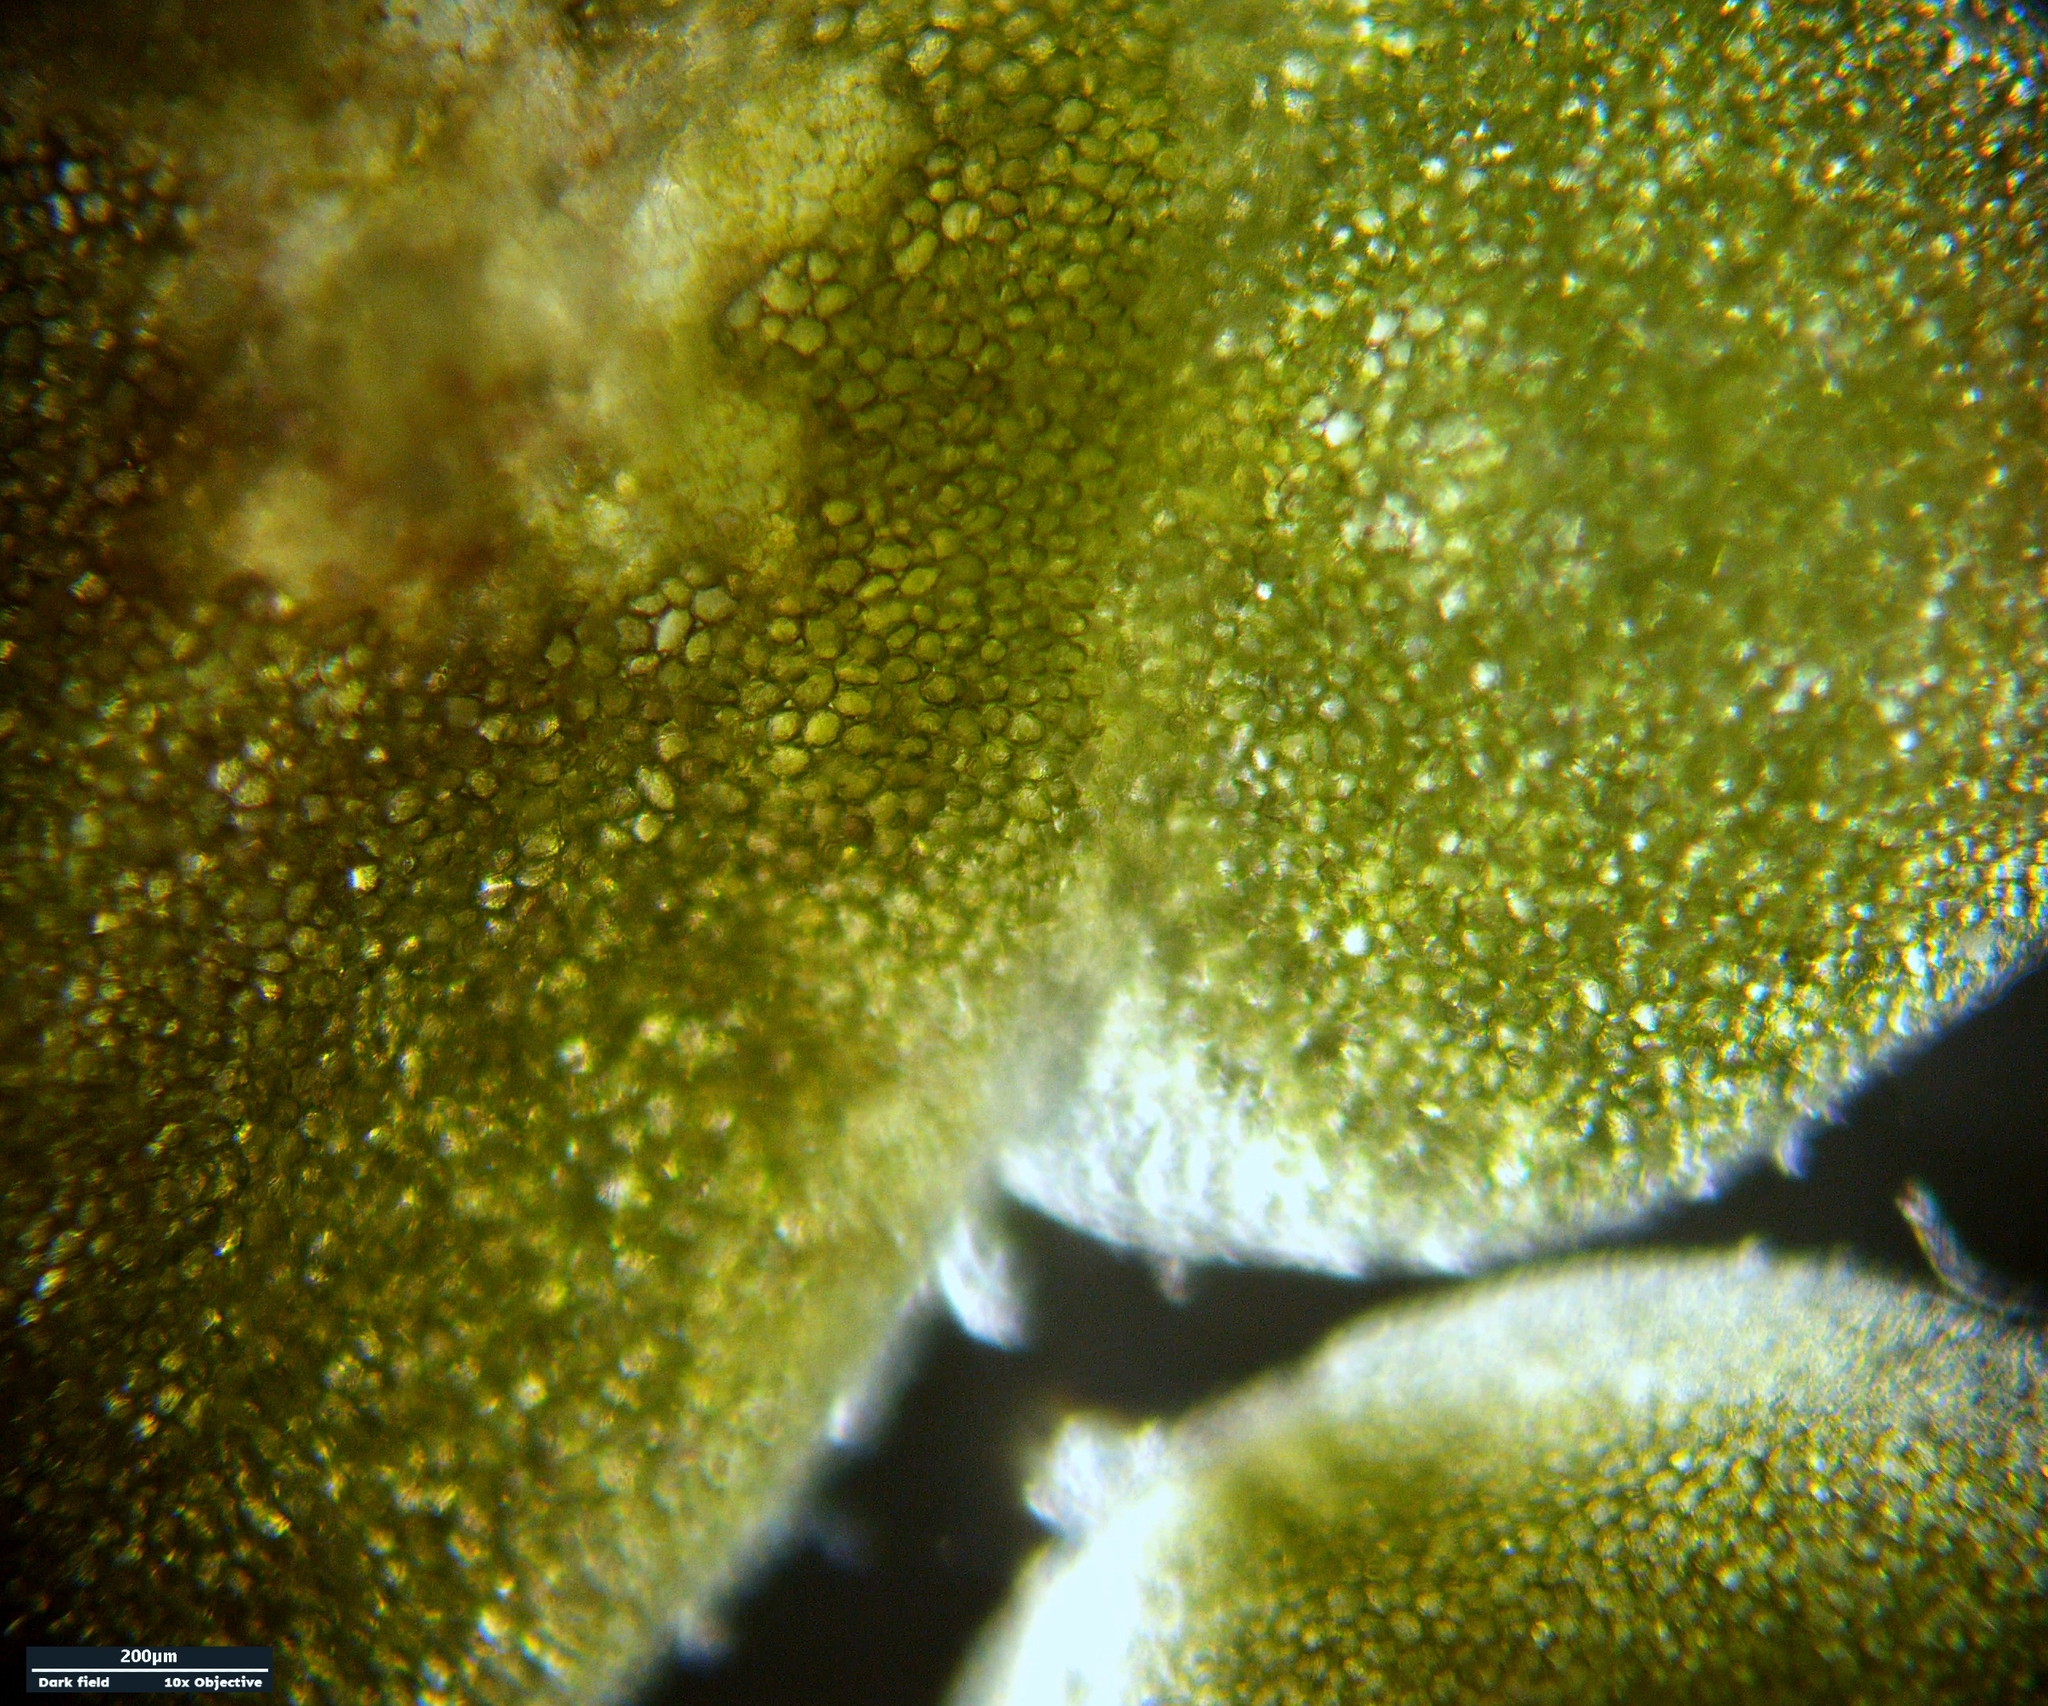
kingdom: Plantae
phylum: Tracheophyta
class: Liliopsida
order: Alismatales
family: Araceae
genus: Lemna
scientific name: Lemna turionifera
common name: Perennial duckweed
